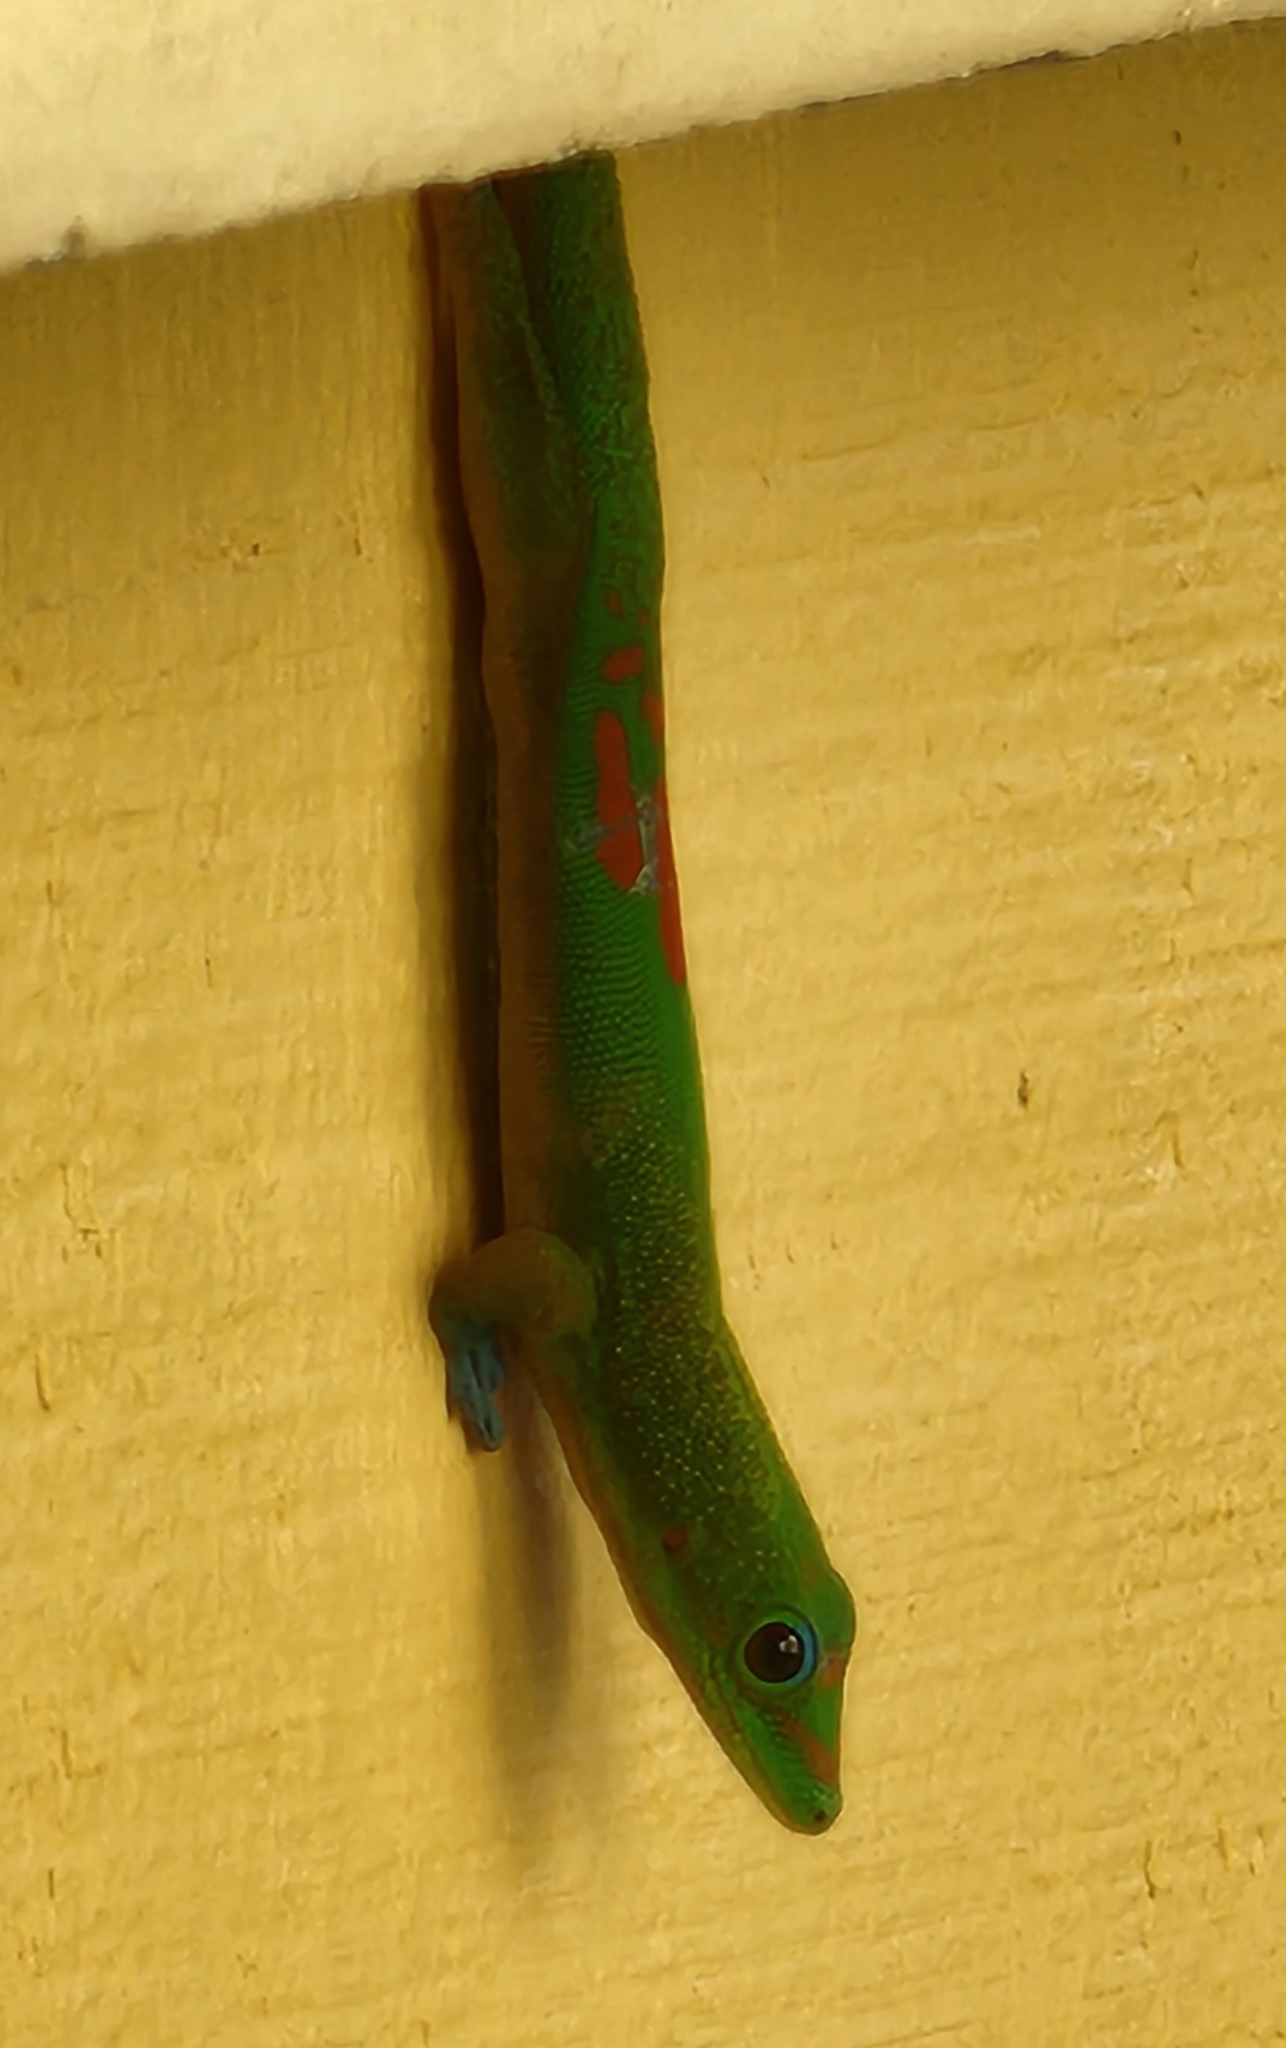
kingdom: Animalia
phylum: Chordata
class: Squamata
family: Gekkonidae
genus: Phelsuma
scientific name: Phelsuma laticauda
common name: Gold dust day gecko
